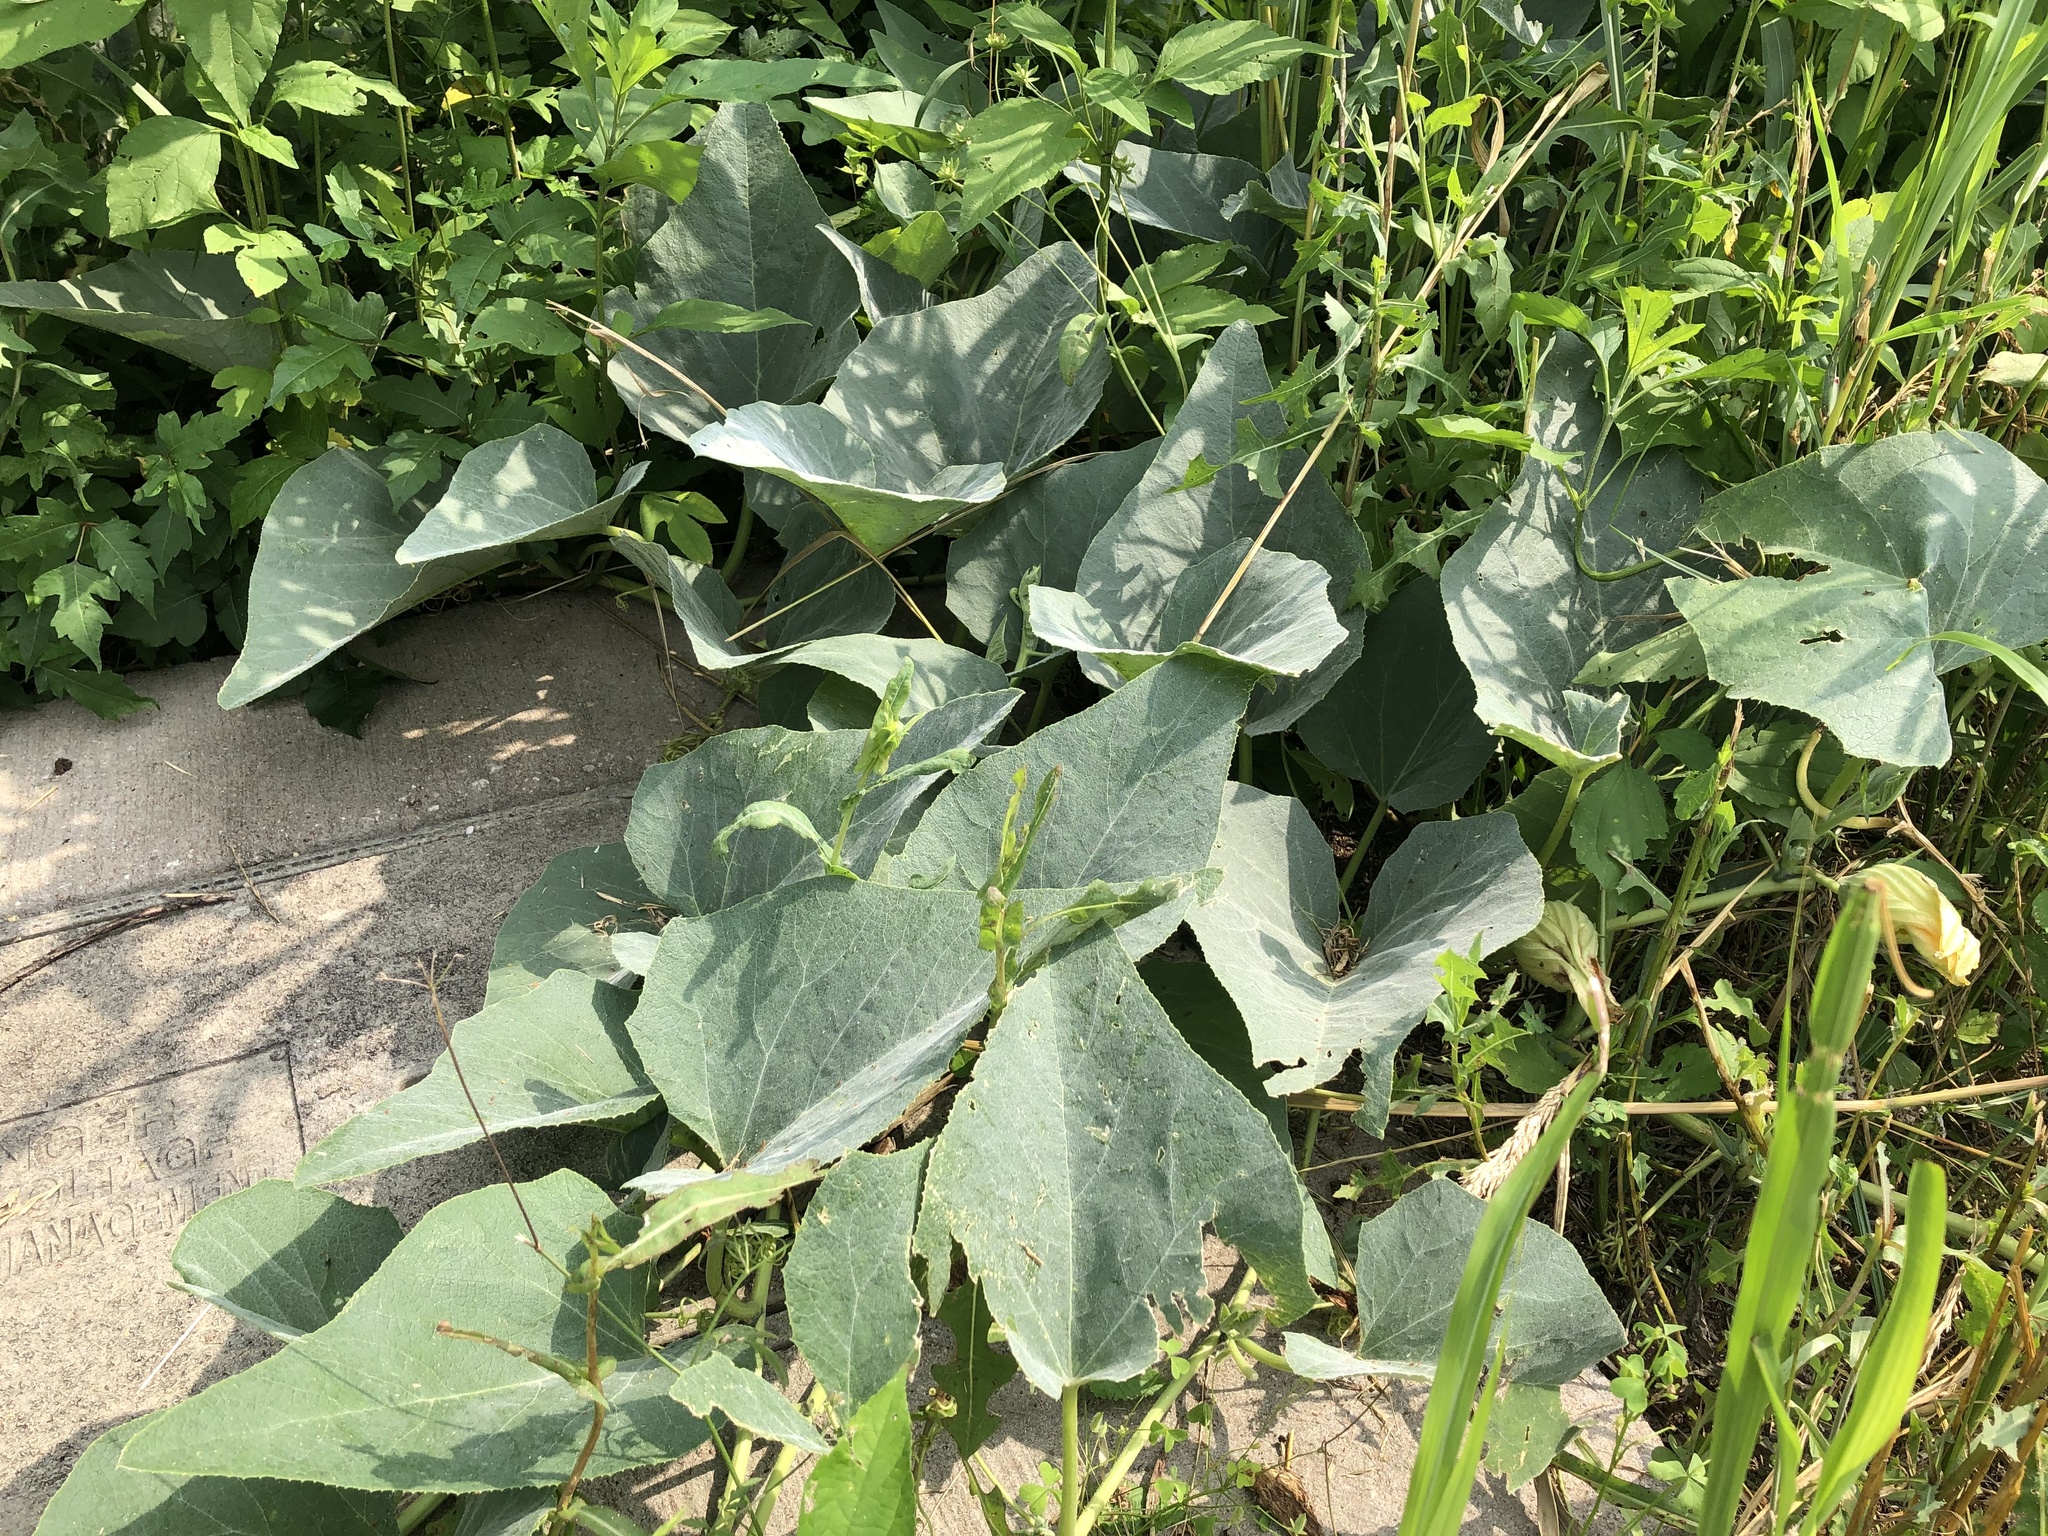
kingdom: Plantae
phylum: Tracheophyta
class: Magnoliopsida
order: Cucurbitales
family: Cucurbitaceae
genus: Cucurbita
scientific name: Cucurbita foetidissima
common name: Buffalo gourd
